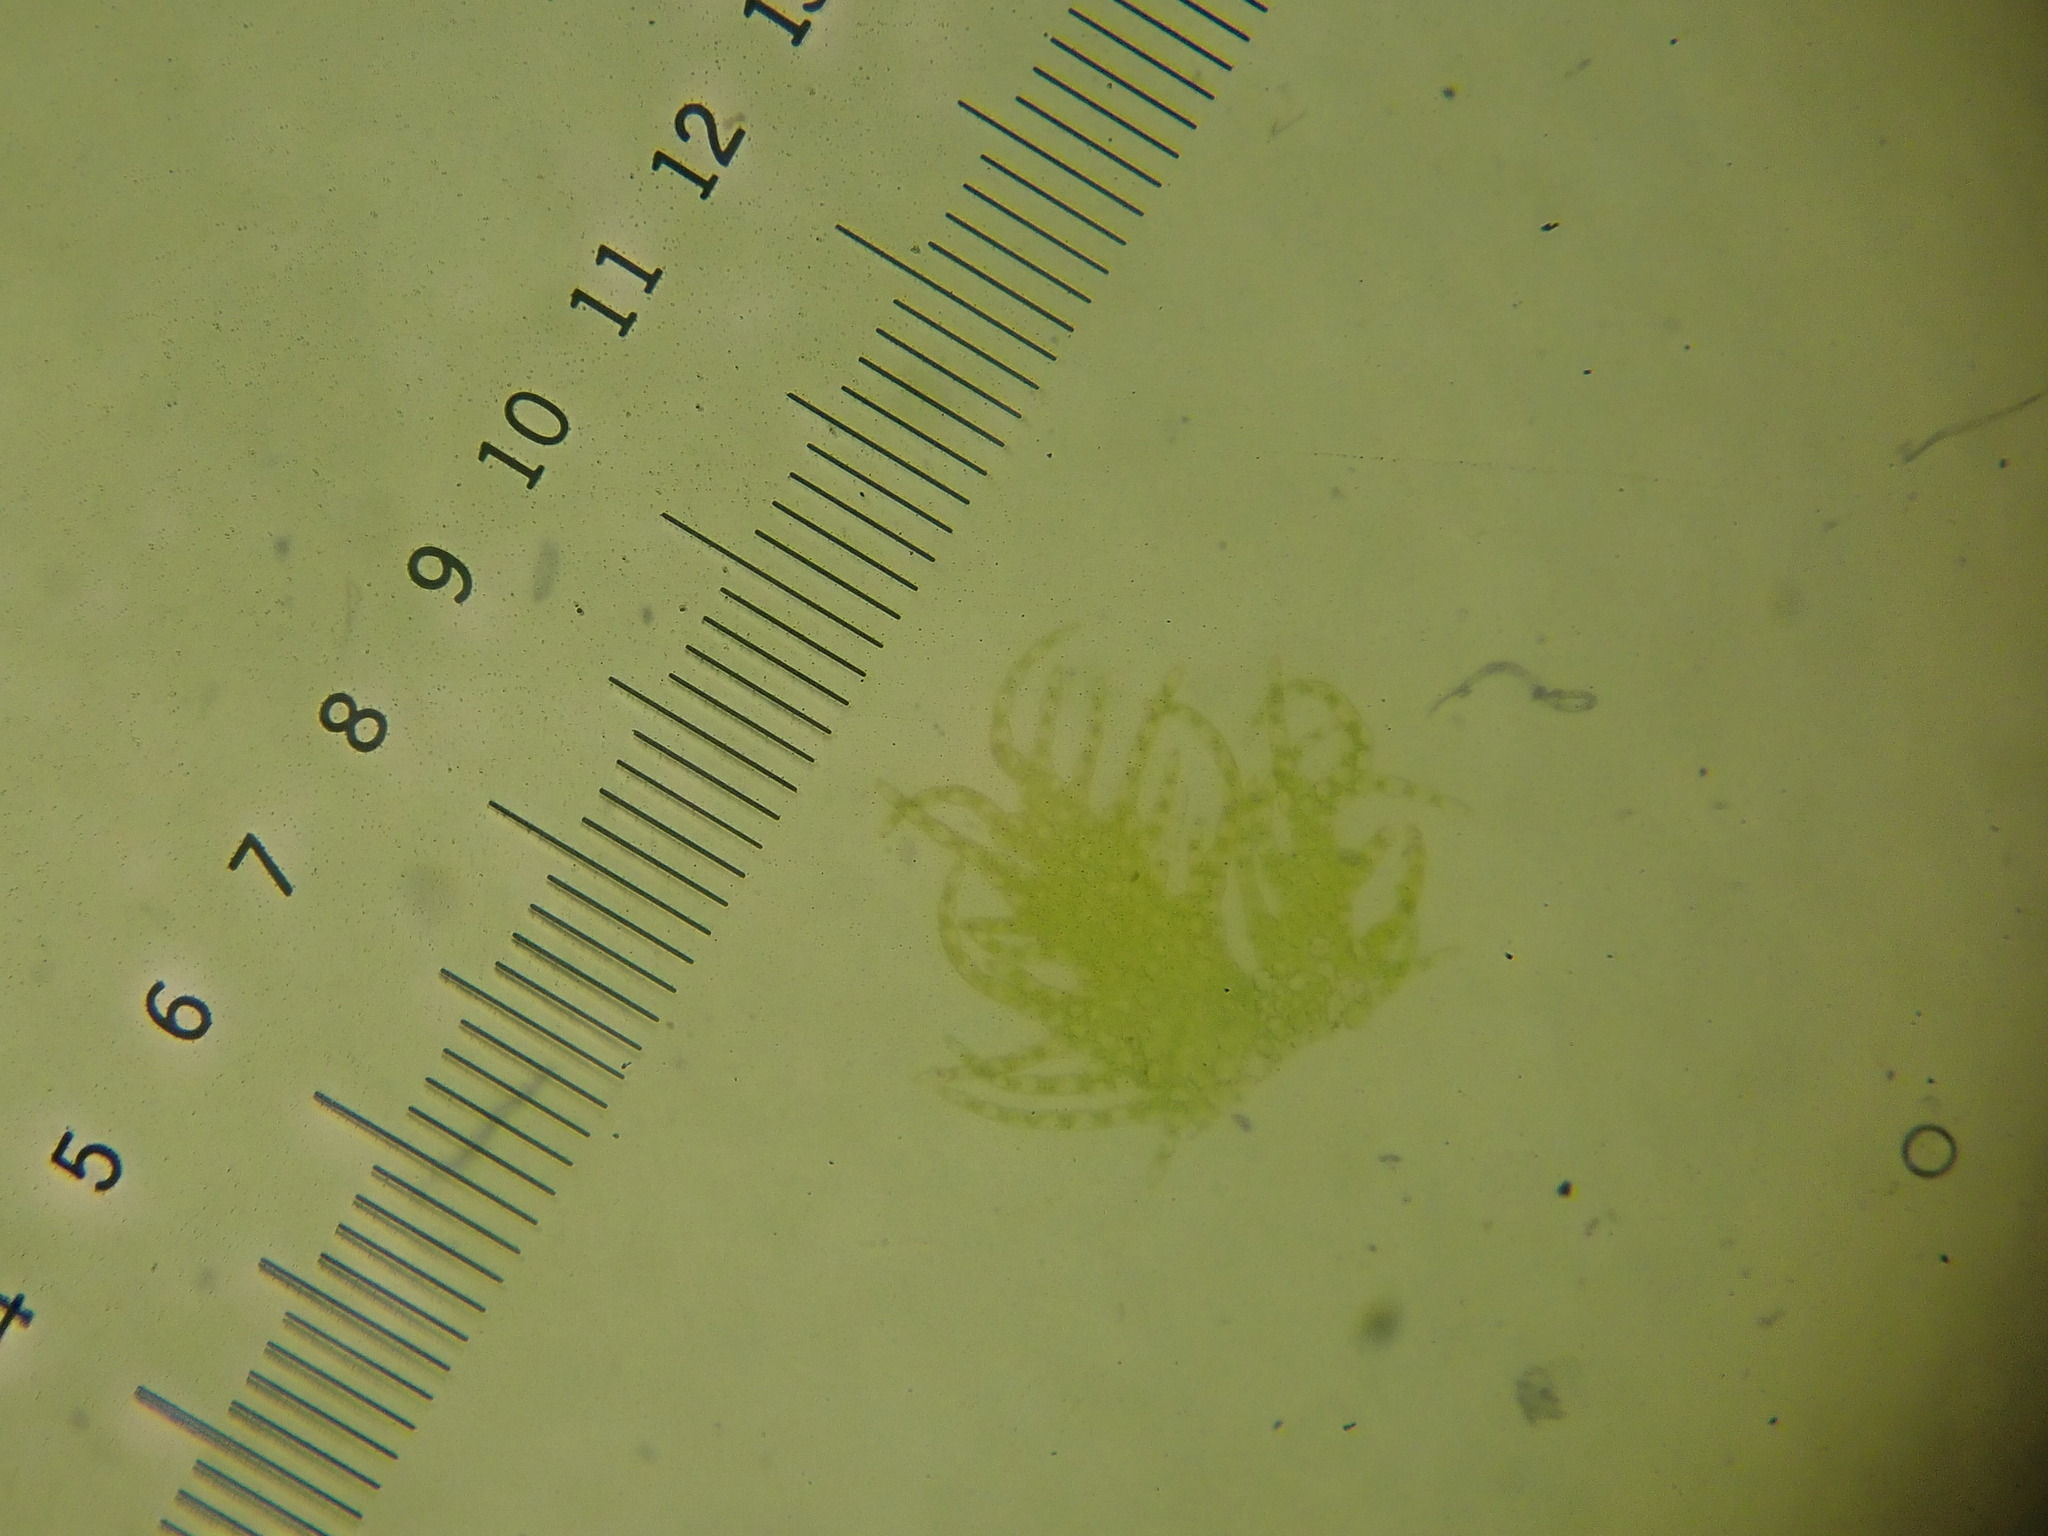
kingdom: Plantae
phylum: Marchantiophyta
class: Jungermanniopsida
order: Ptilidiales
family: Ptilidiaceae
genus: Ptilidium
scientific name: Ptilidium pulcherrimum
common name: Tree fringewort
